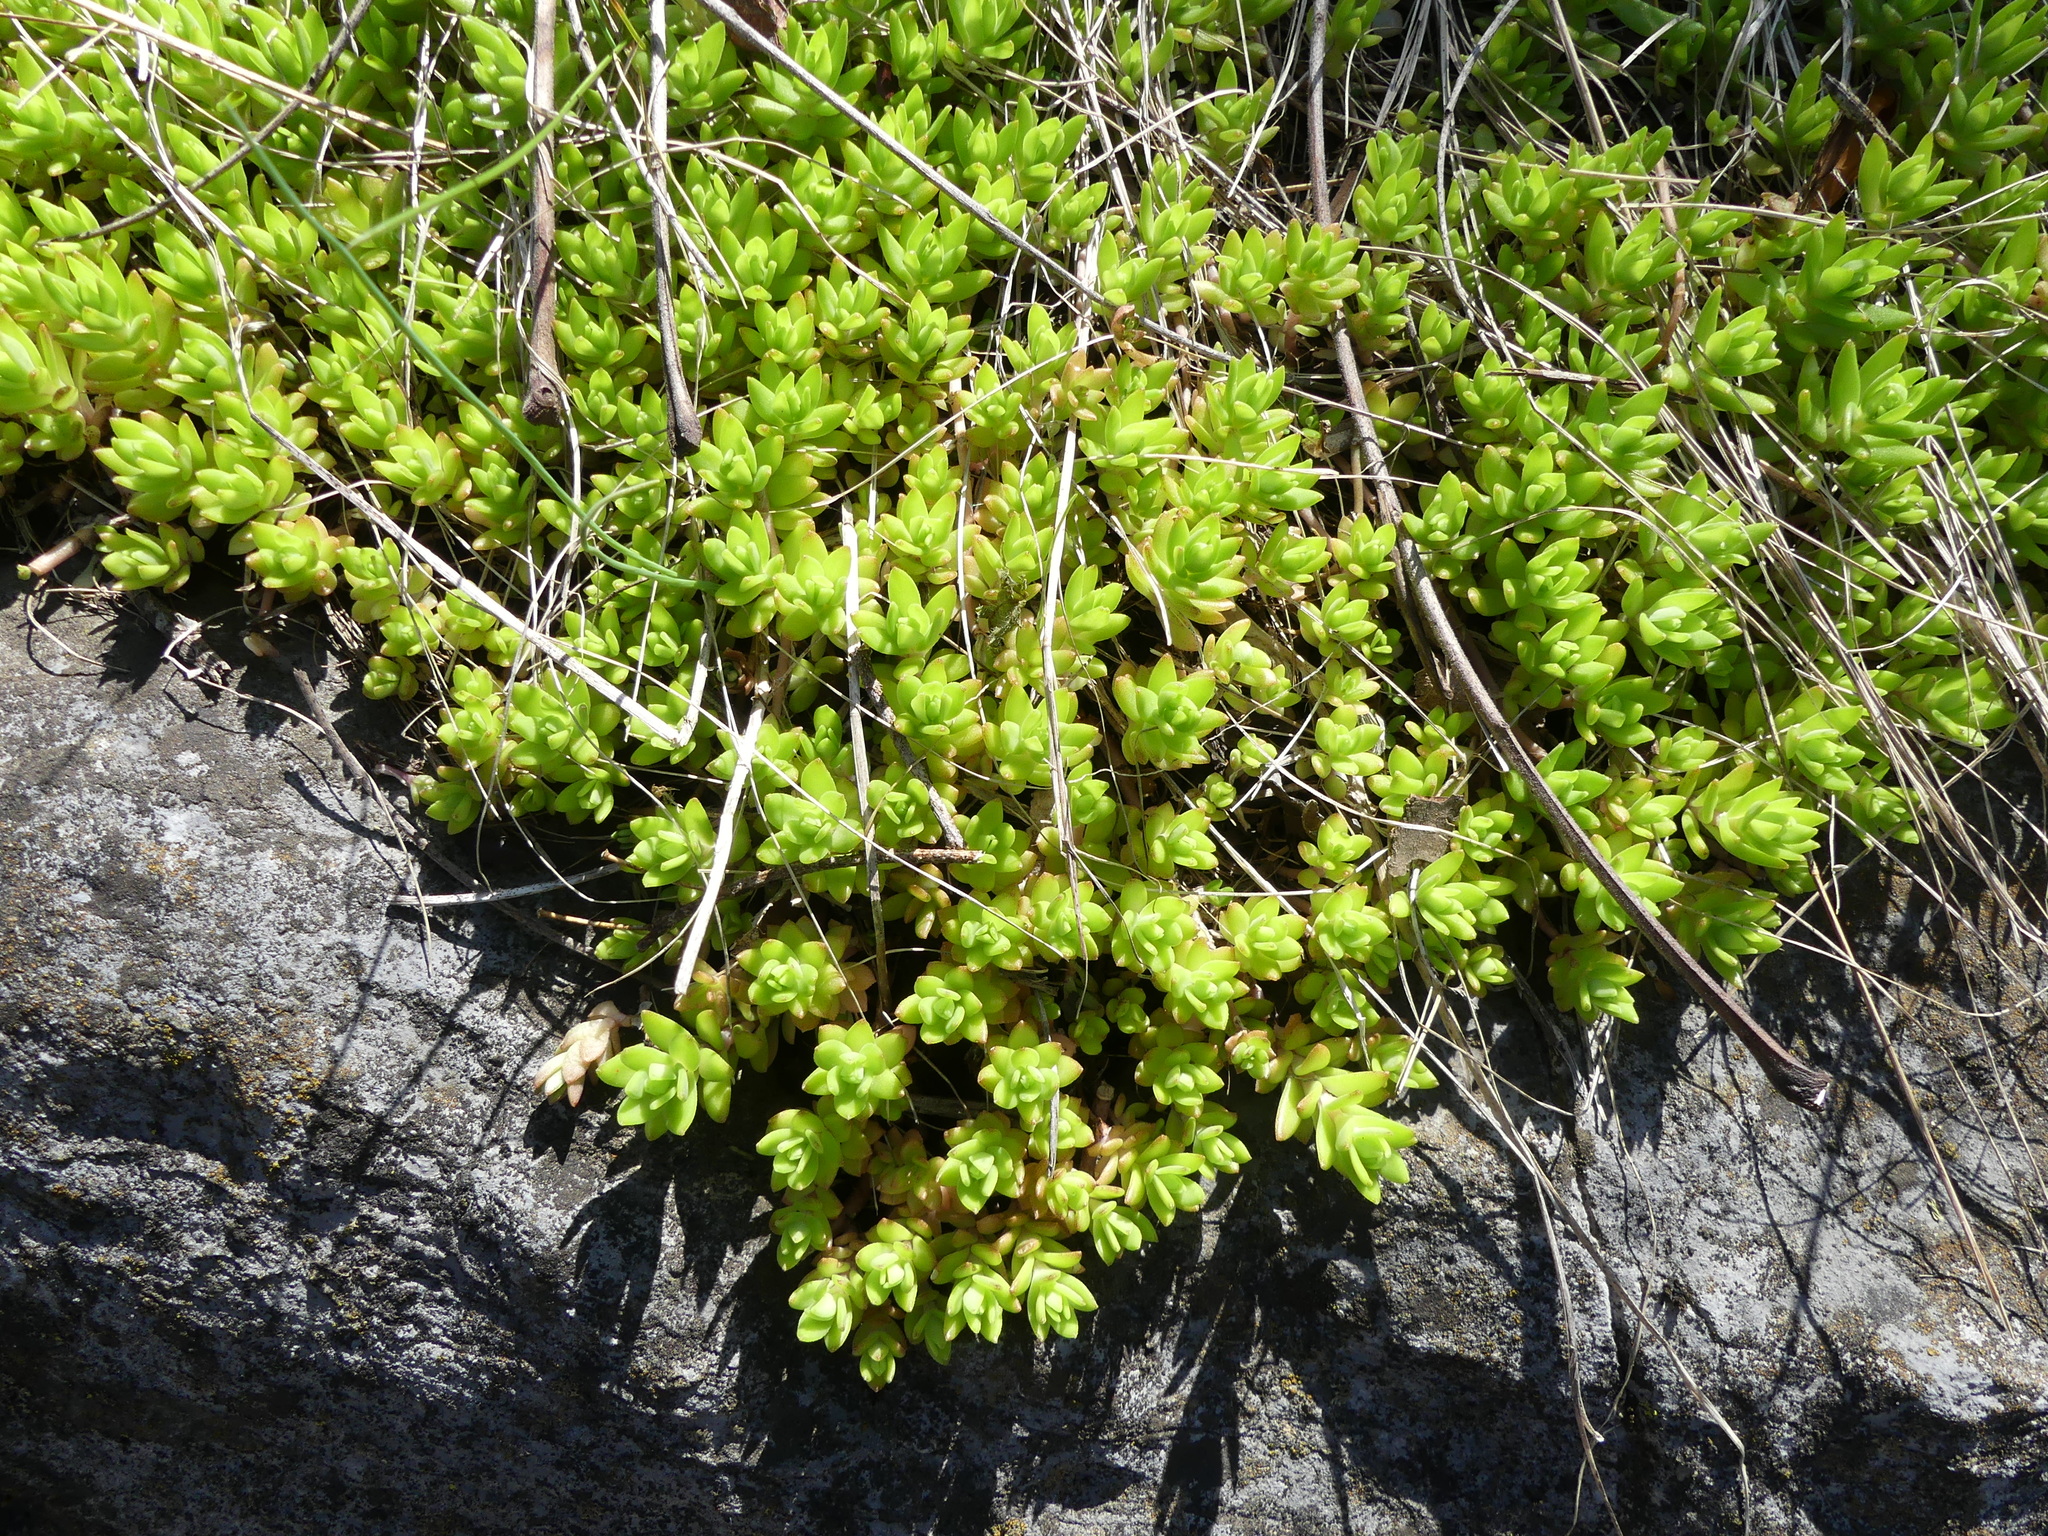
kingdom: Plantae
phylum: Tracheophyta
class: Magnoliopsida
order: Saxifragales
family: Crassulaceae
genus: Sedum
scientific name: Sedum sarmentosum
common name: Stringy stonecrop
